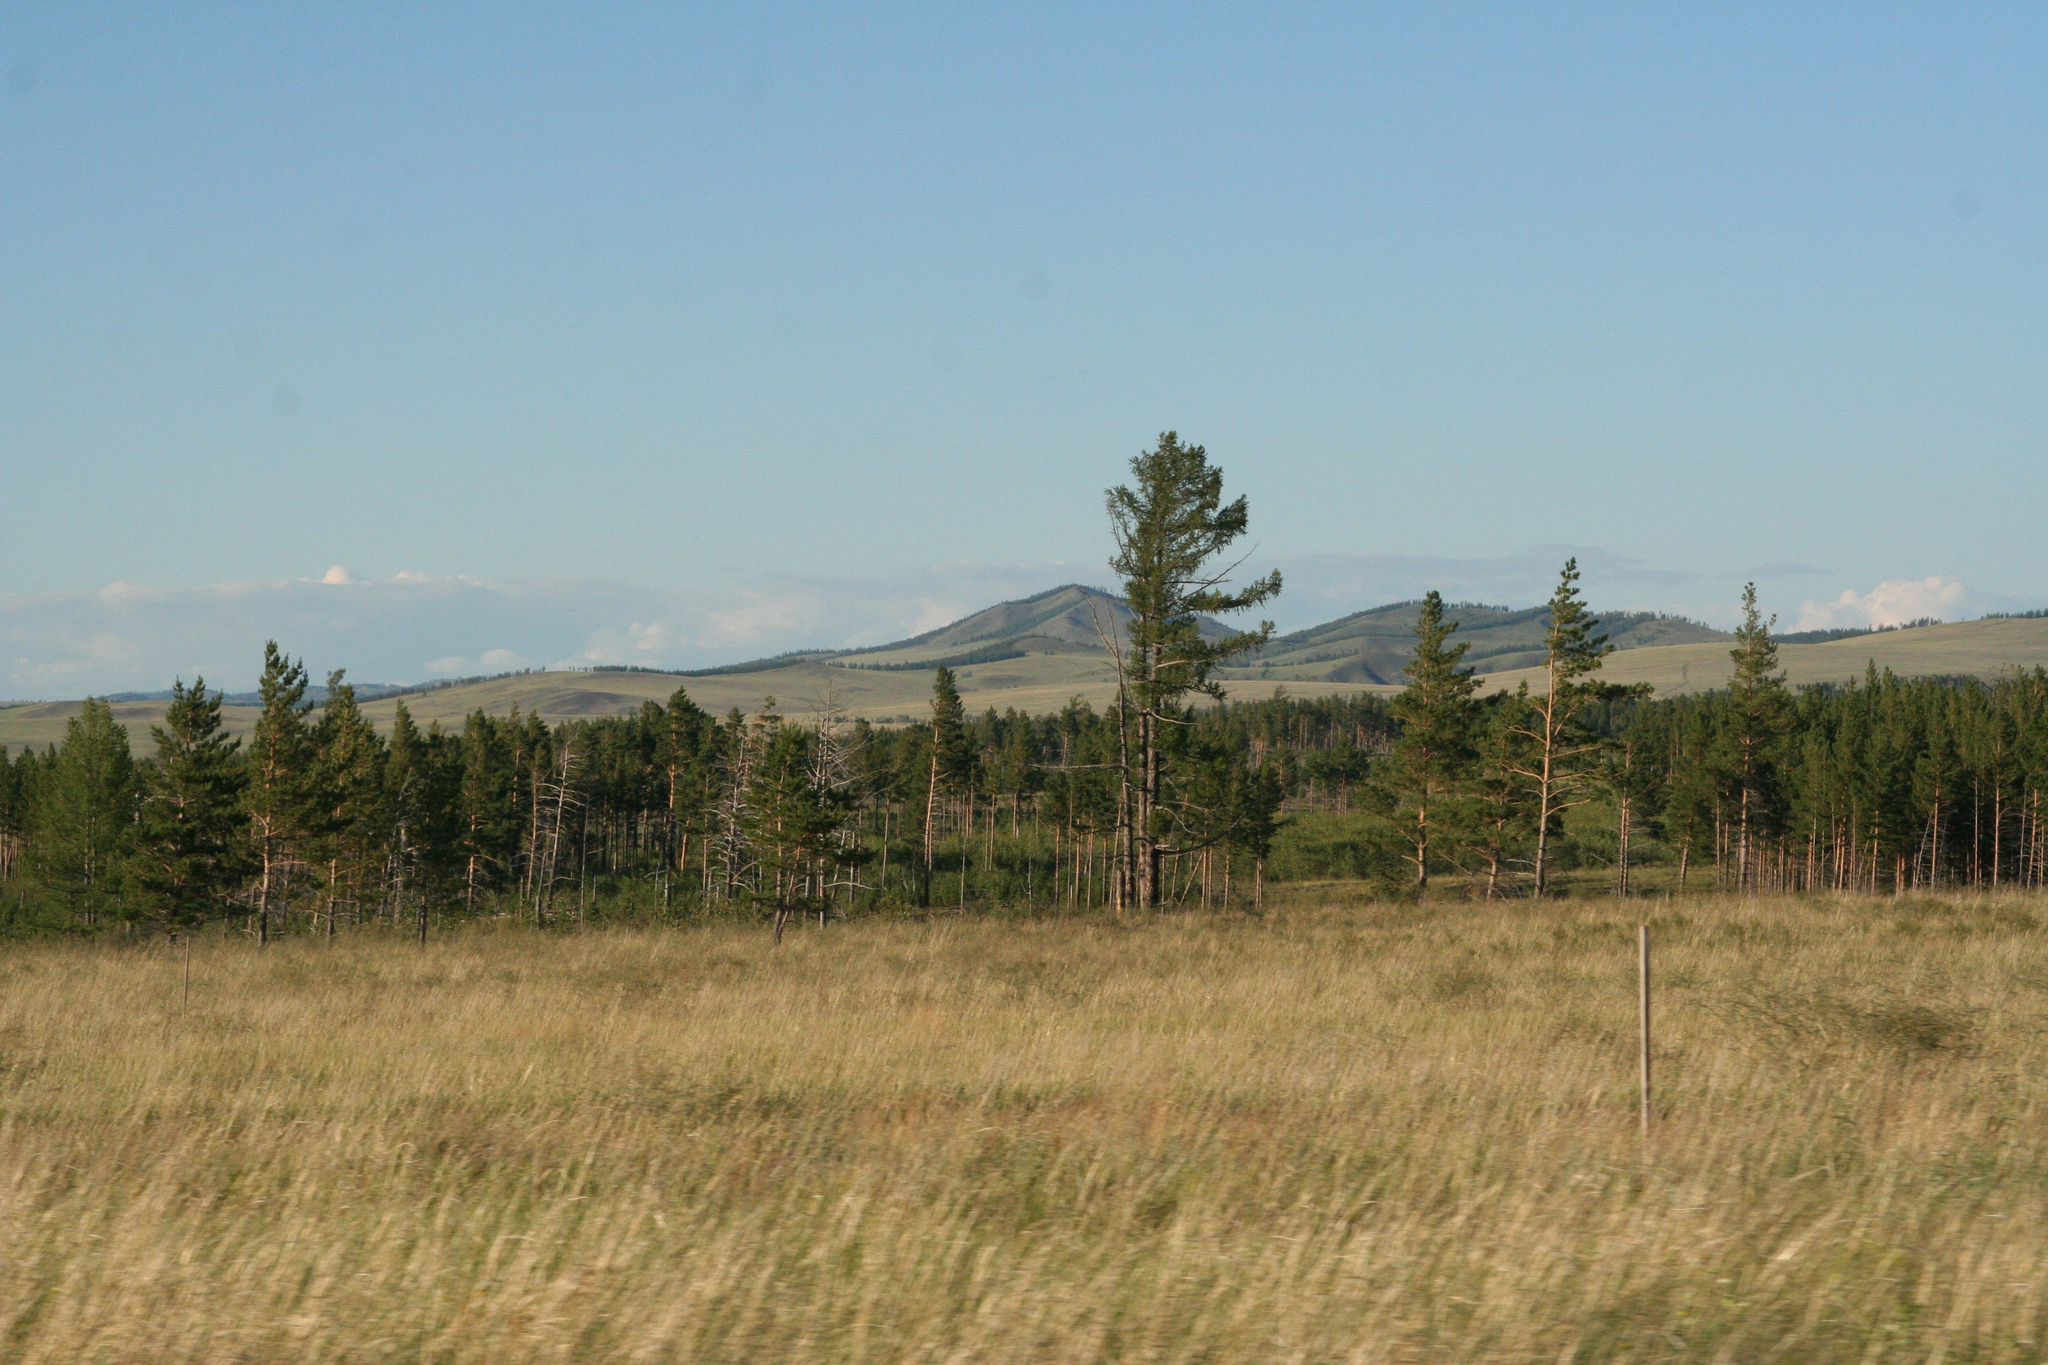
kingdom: Plantae
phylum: Tracheophyta
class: Pinopsida
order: Pinales
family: Pinaceae
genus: Pinus
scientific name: Pinus sylvestris
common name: Scots pine
